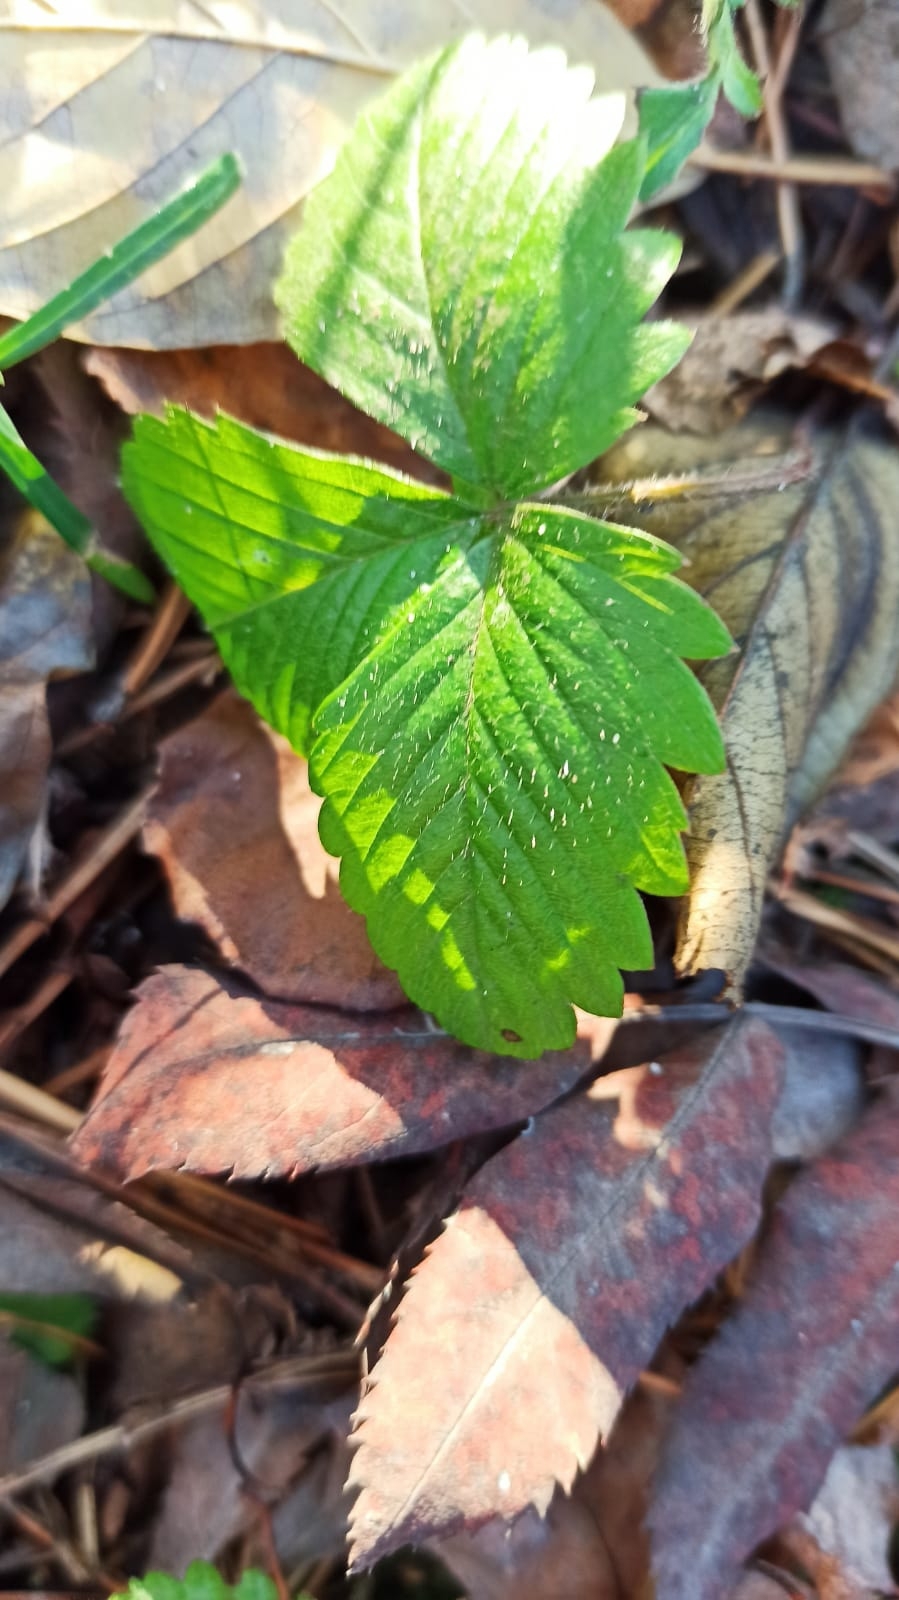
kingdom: Plantae
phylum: Tracheophyta
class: Magnoliopsida
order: Rosales
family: Rosaceae
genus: Fragaria
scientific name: Fragaria vesca
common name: Wild strawberry
